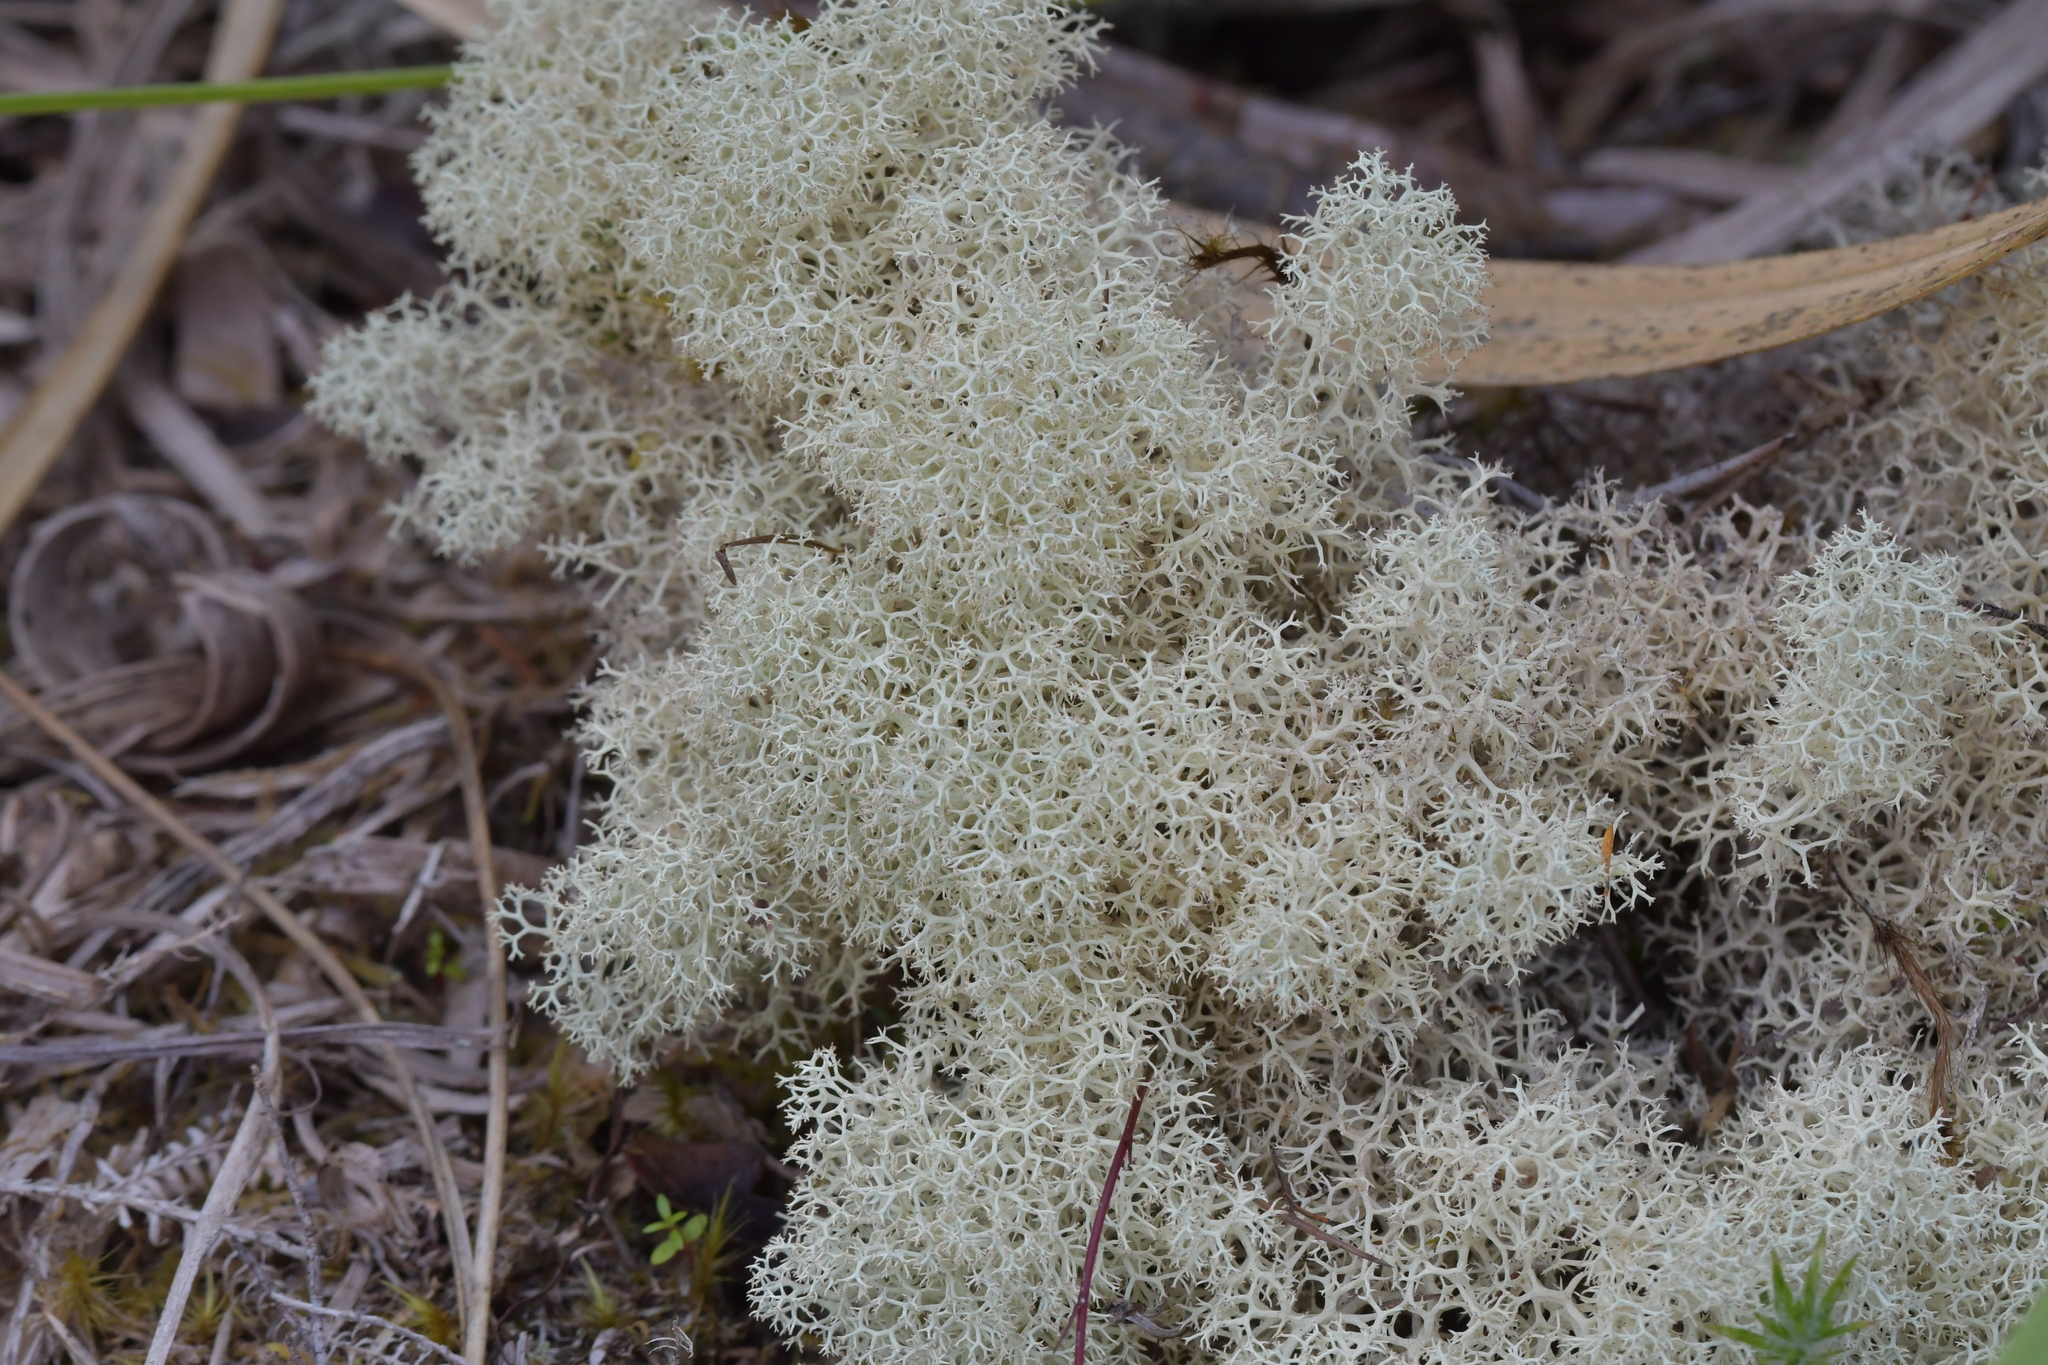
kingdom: Fungi
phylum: Ascomycota
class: Lecanoromycetes
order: Lecanorales
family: Cladoniaceae
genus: Cladonia
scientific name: Cladonia confusa
